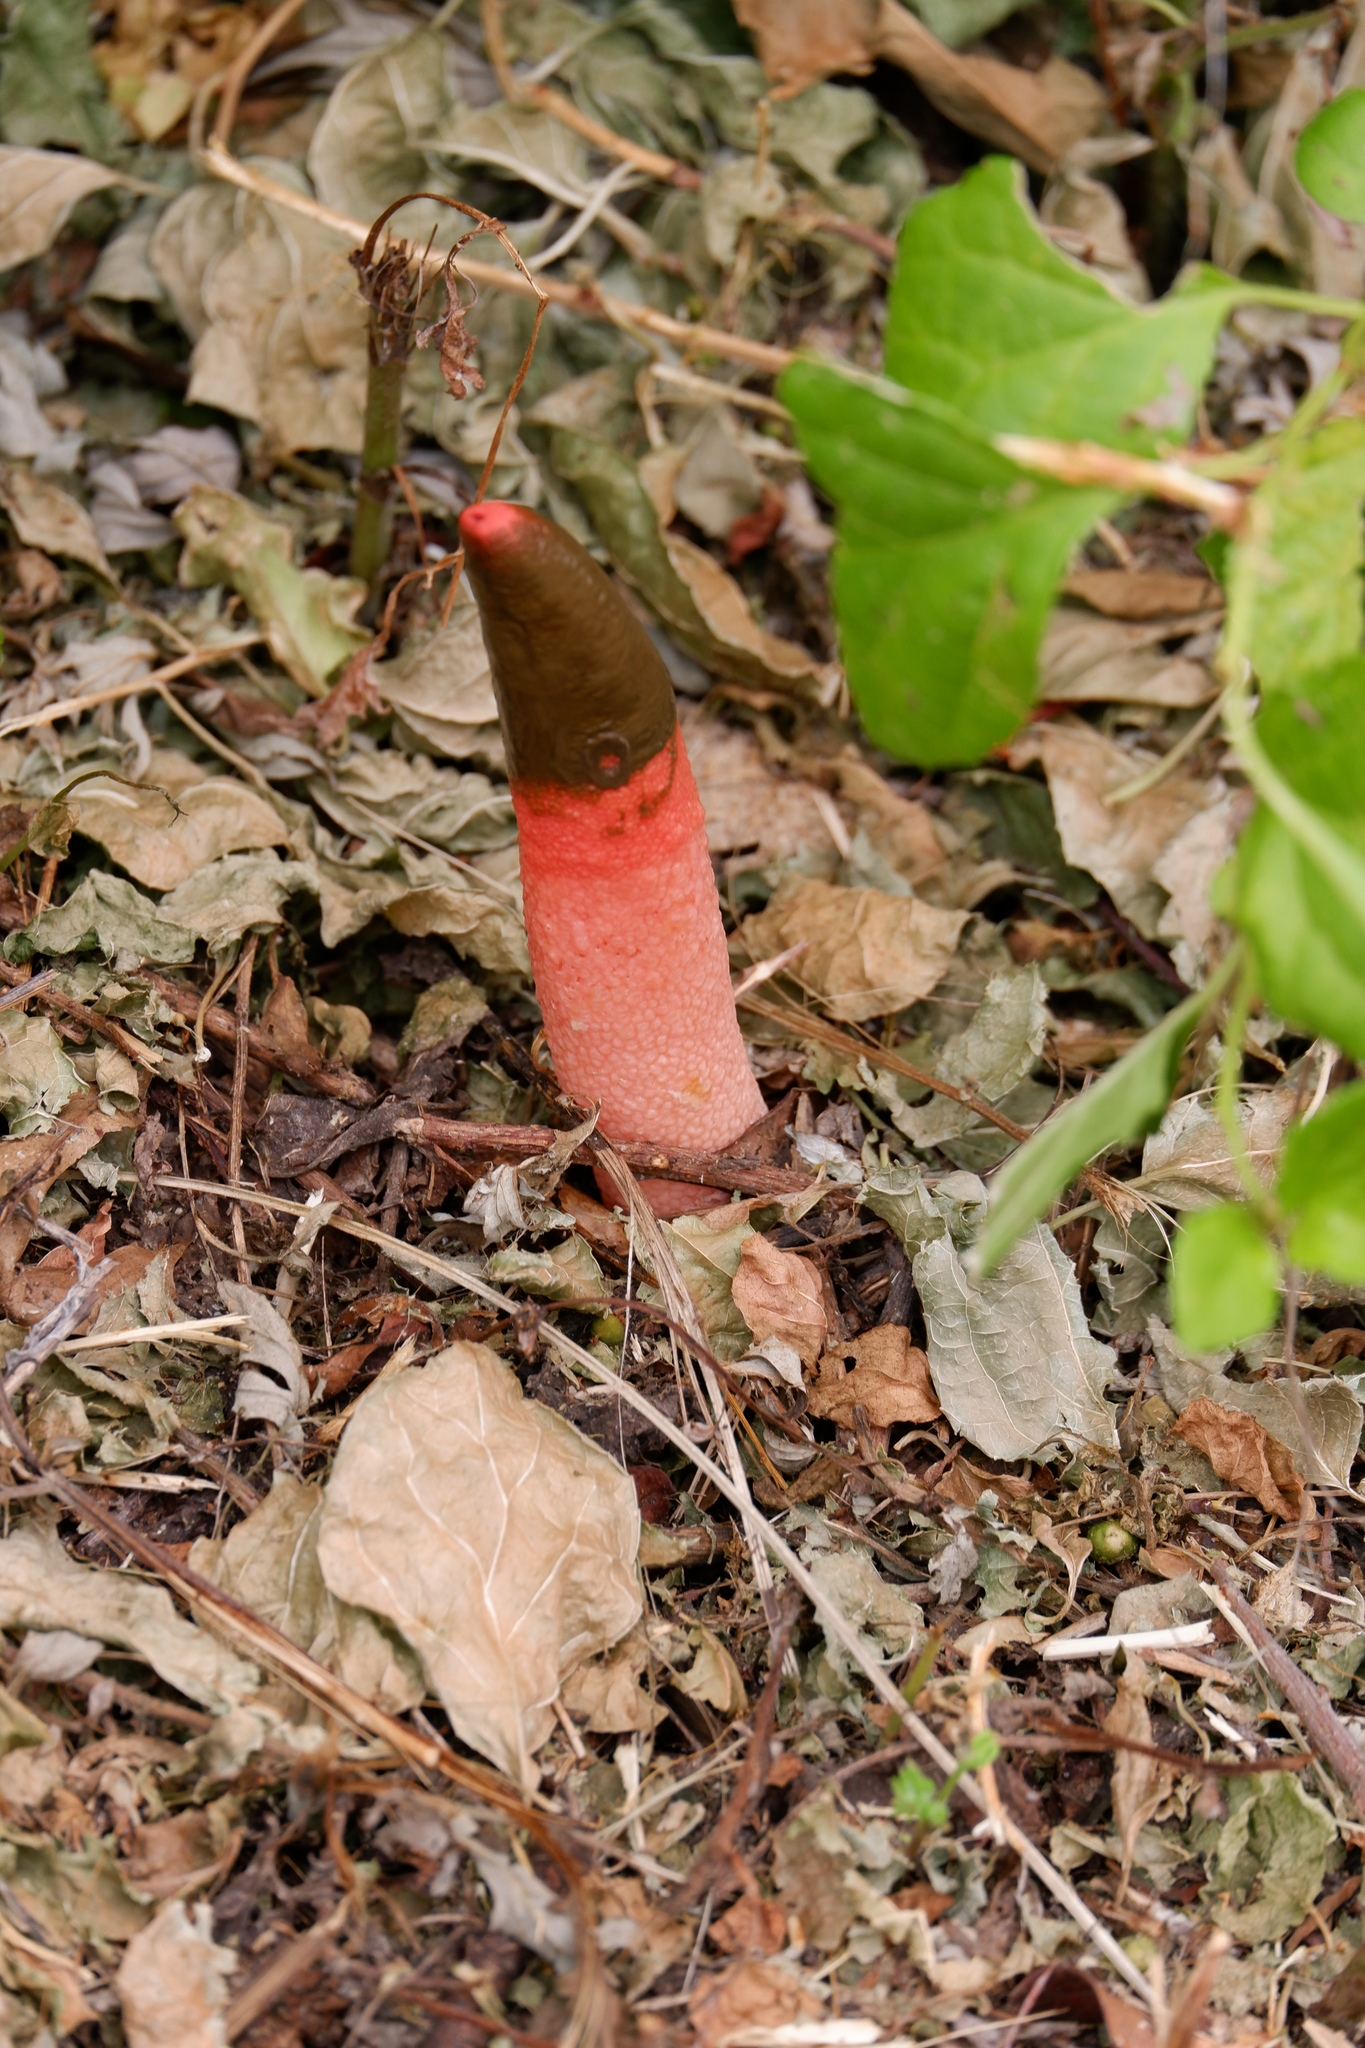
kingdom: Fungi
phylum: Basidiomycota
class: Agaricomycetes
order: Phallales
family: Phallaceae
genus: Mutinus
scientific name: Mutinus elegans
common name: Devil's dipstick
